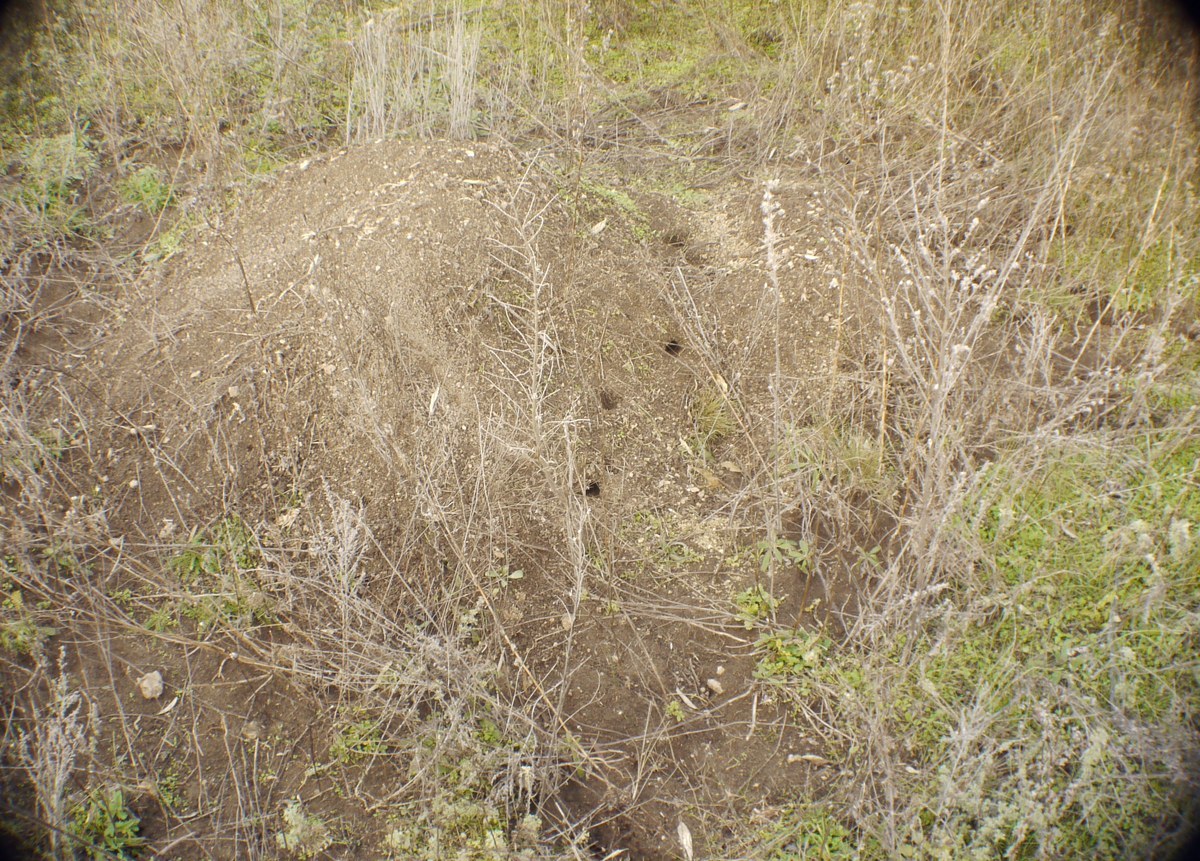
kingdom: Animalia
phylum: Chordata
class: Mammalia
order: Rodentia
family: Muridae
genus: Mus
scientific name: Mus spicilegus
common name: Mound-building mouse
